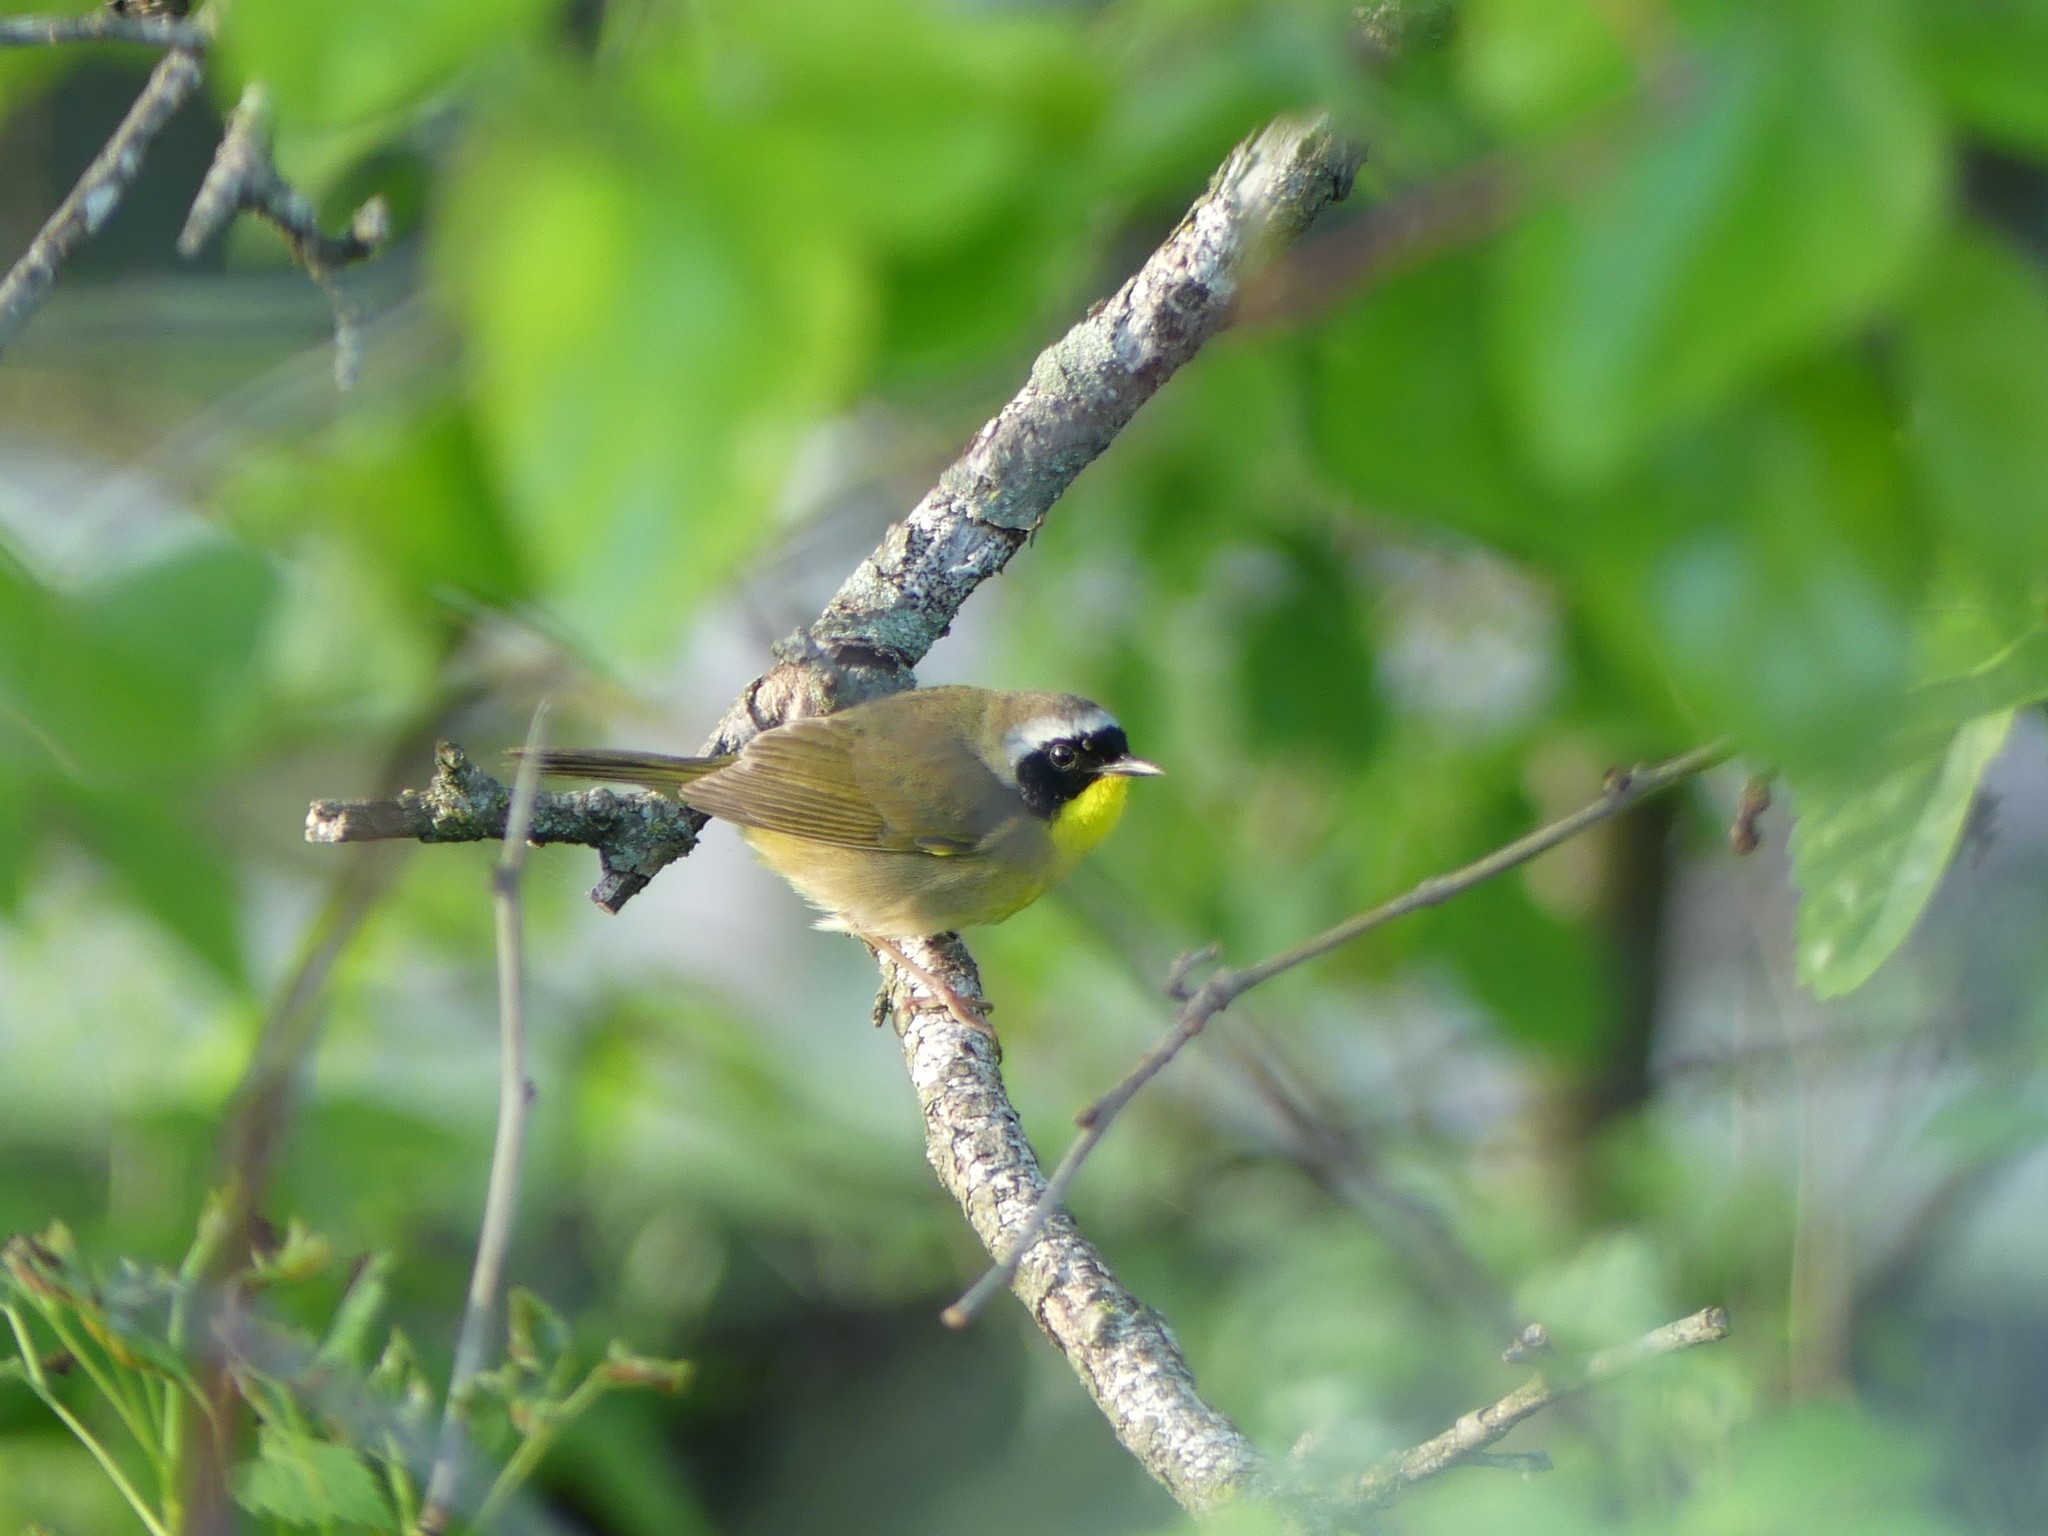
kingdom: Animalia
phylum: Chordata
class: Aves
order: Passeriformes
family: Parulidae
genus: Geothlypis
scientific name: Geothlypis trichas
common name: Common yellowthroat
